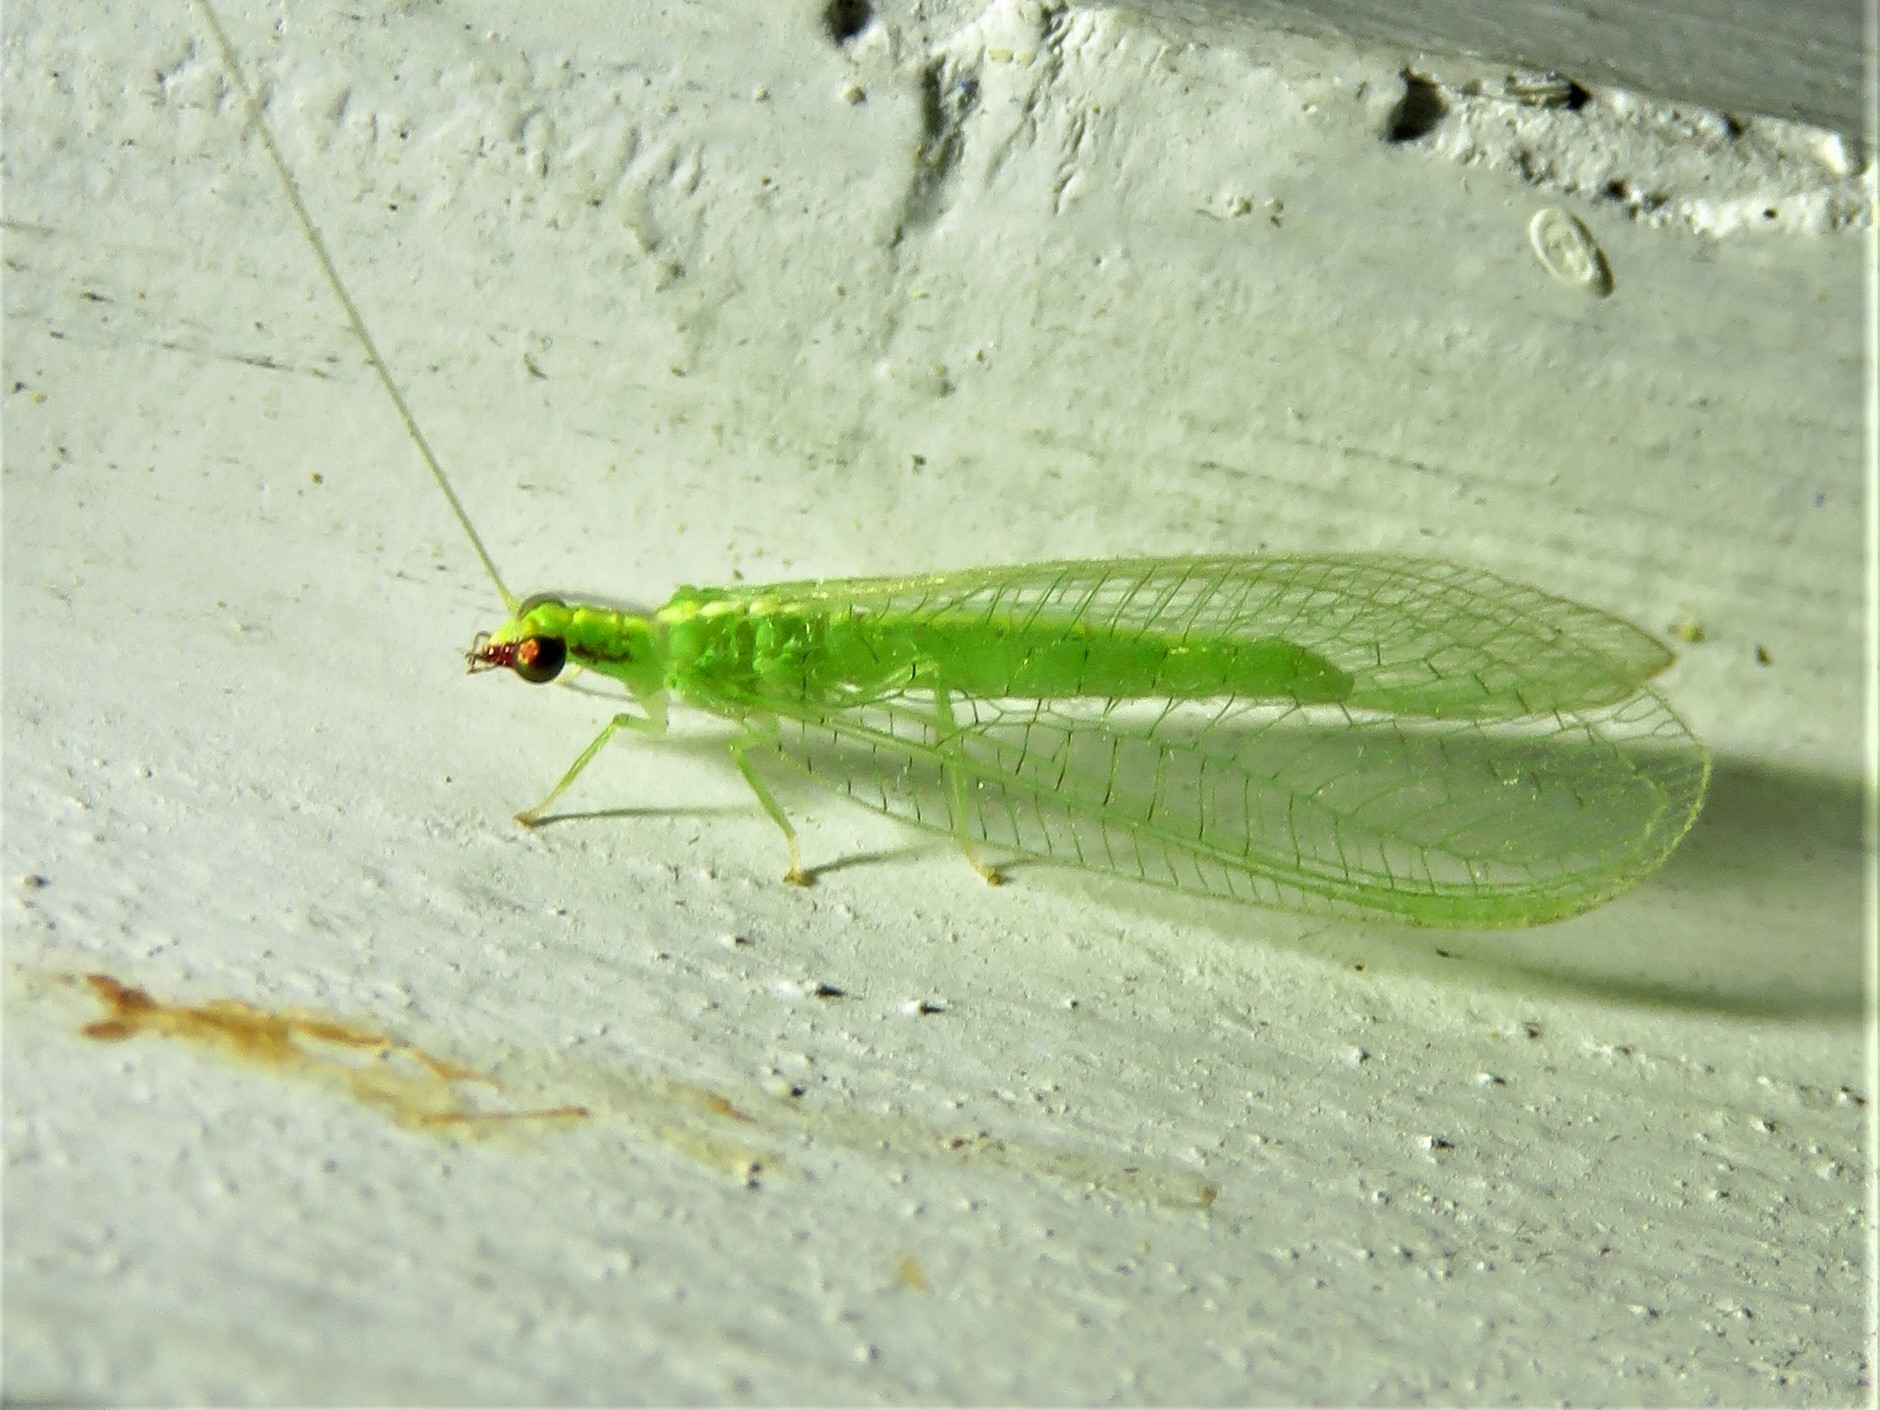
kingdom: Animalia
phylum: Arthropoda
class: Insecta
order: Neuroptera
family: Chrysopidae
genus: Chrysoperla
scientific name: Chrysoperla rufilabris
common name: Red-lipped green lacewing
